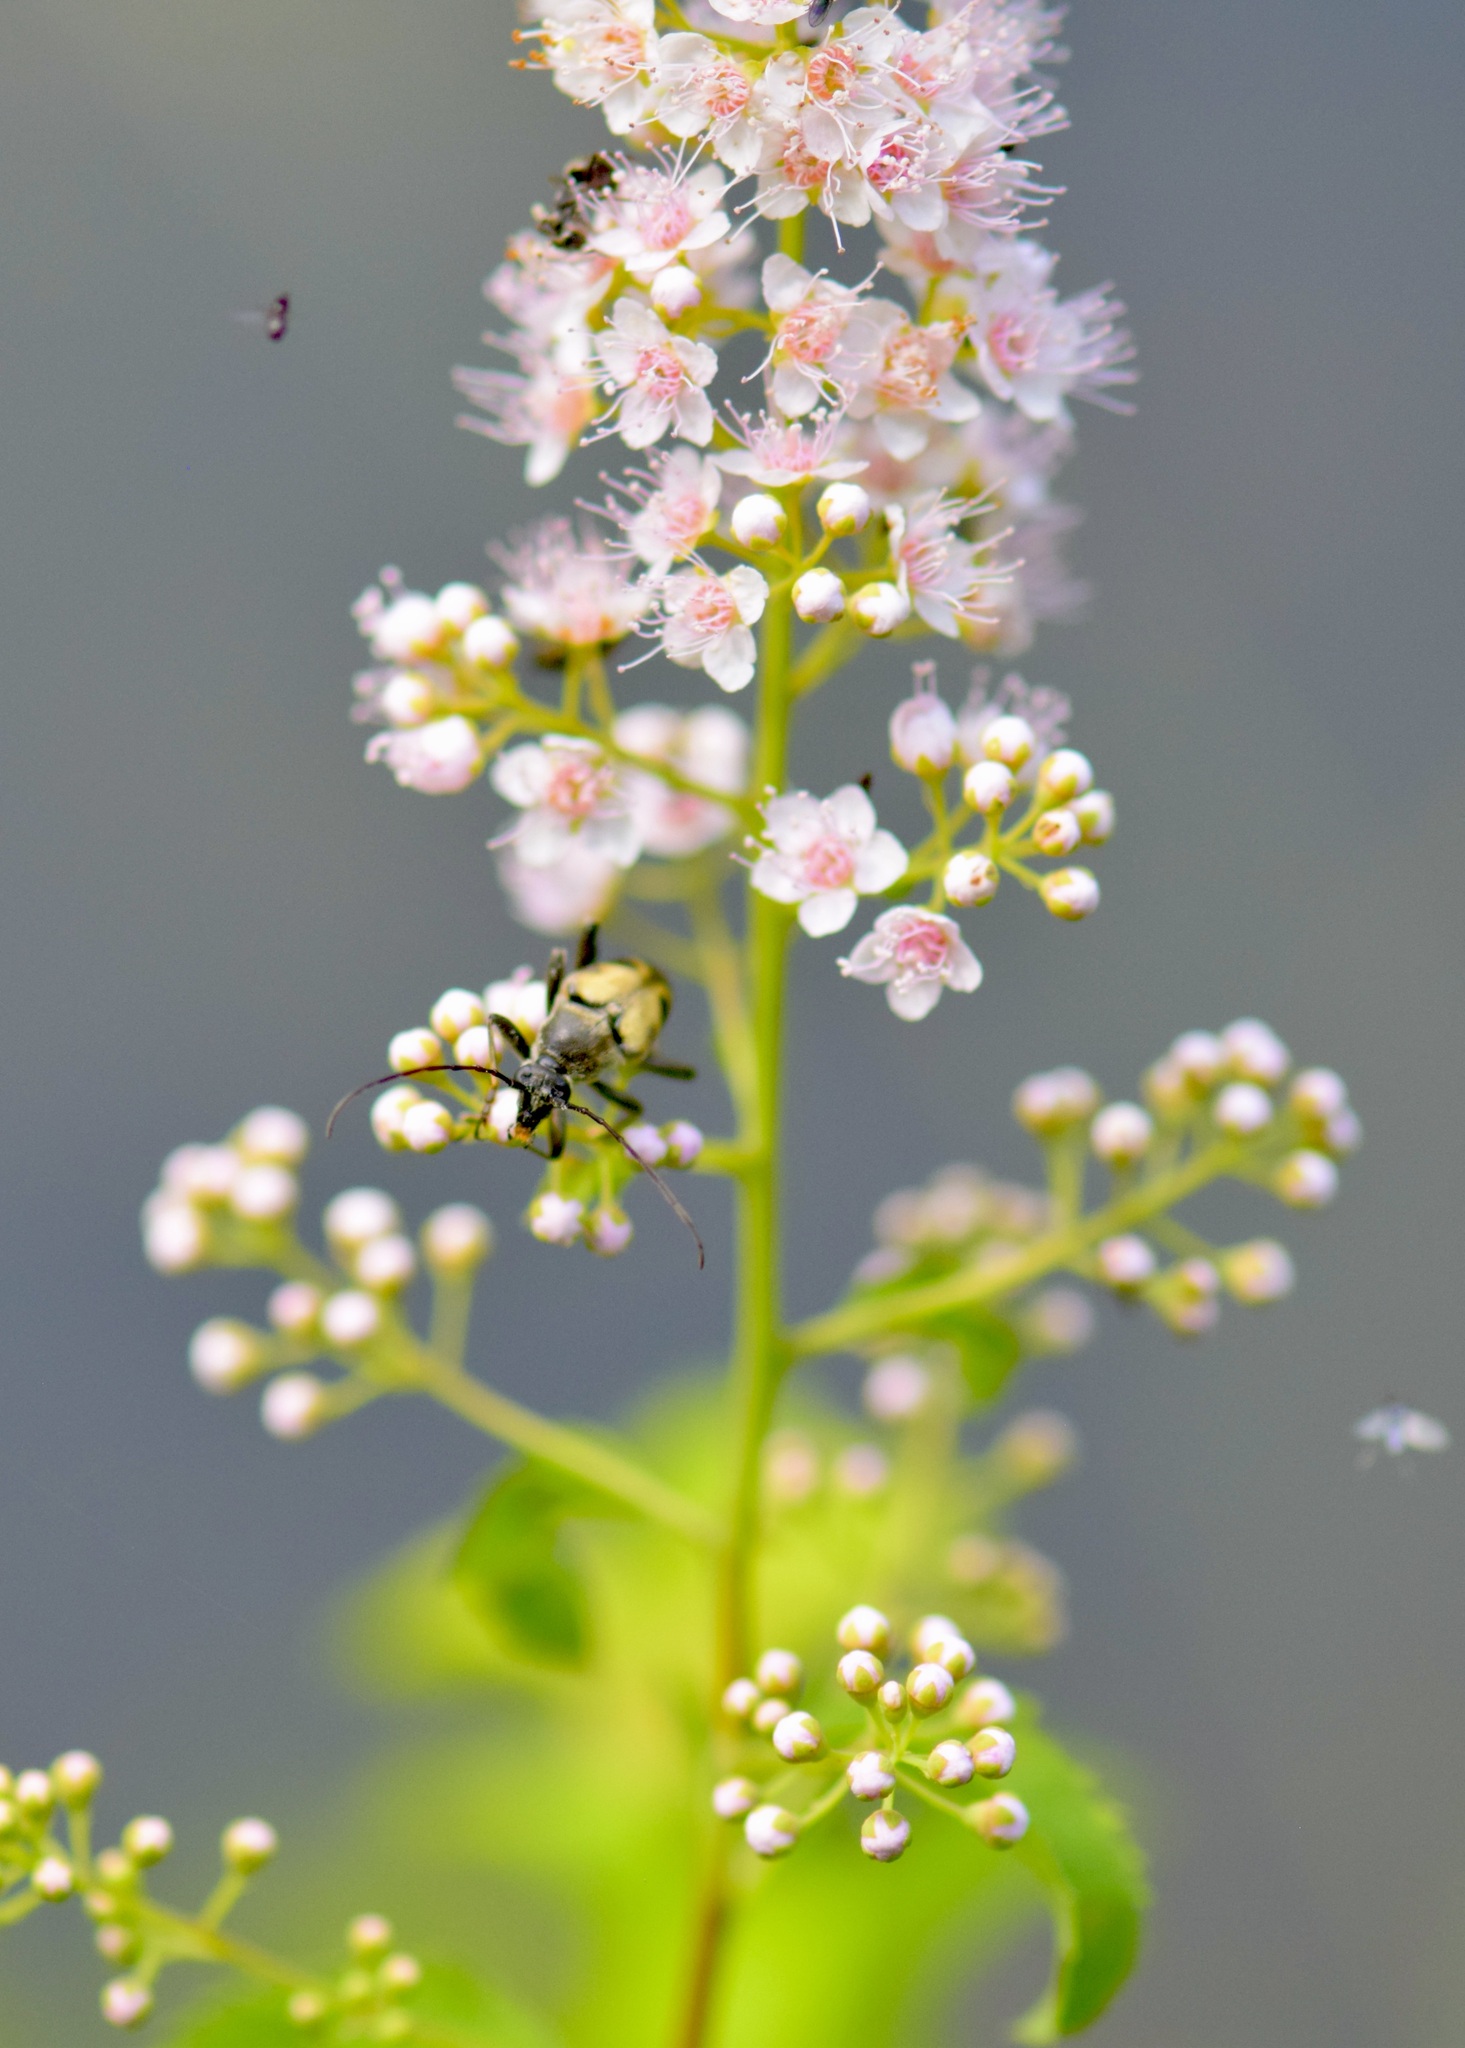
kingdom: Plantae
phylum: Tracheophyta
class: Magnoliopsida
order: Rosales
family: Rosaceae
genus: Spiraea
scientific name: Spiraea alba
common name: Pale bridewort
